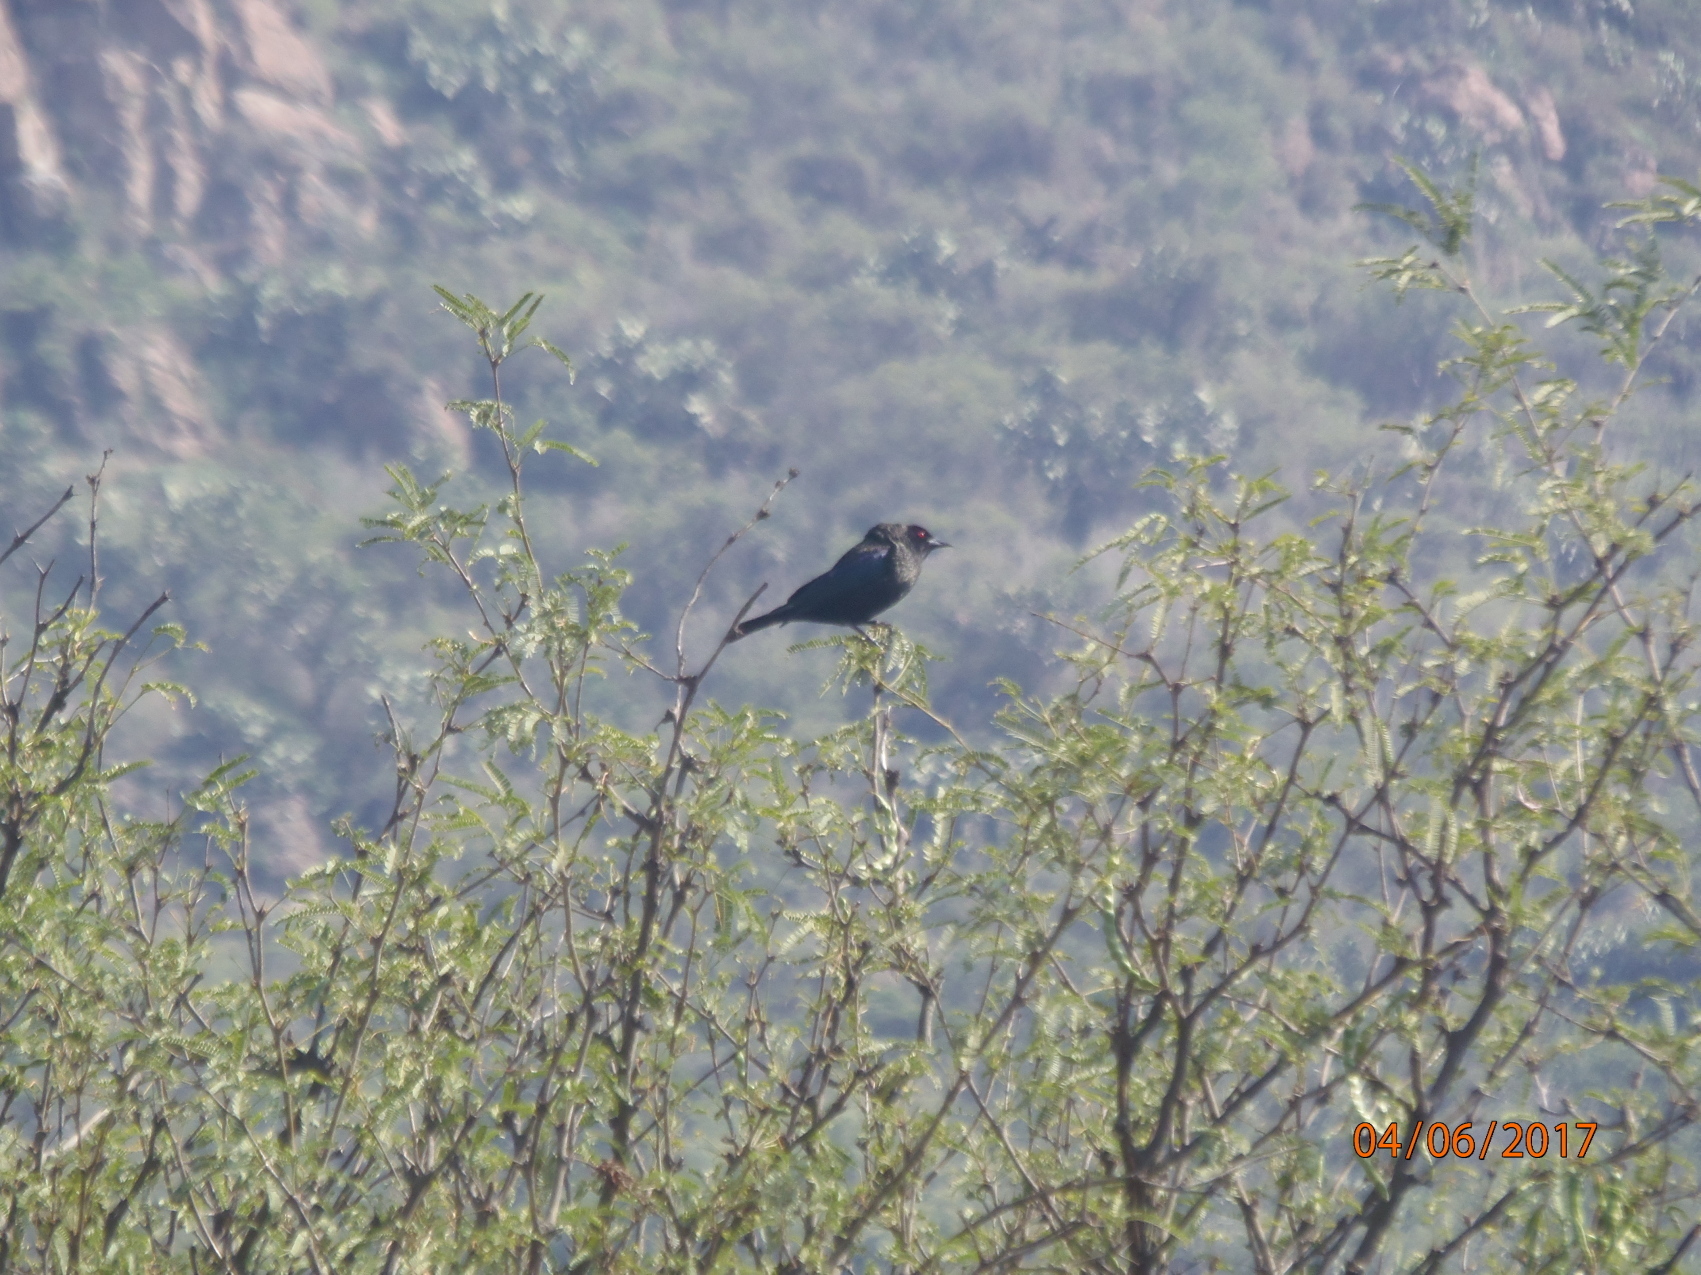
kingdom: Animalia
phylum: Chordata
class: Aves
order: Passeriformes
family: Icteridae
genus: Molothrus
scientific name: Molothrus aeneus
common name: Bronzed cowbird
